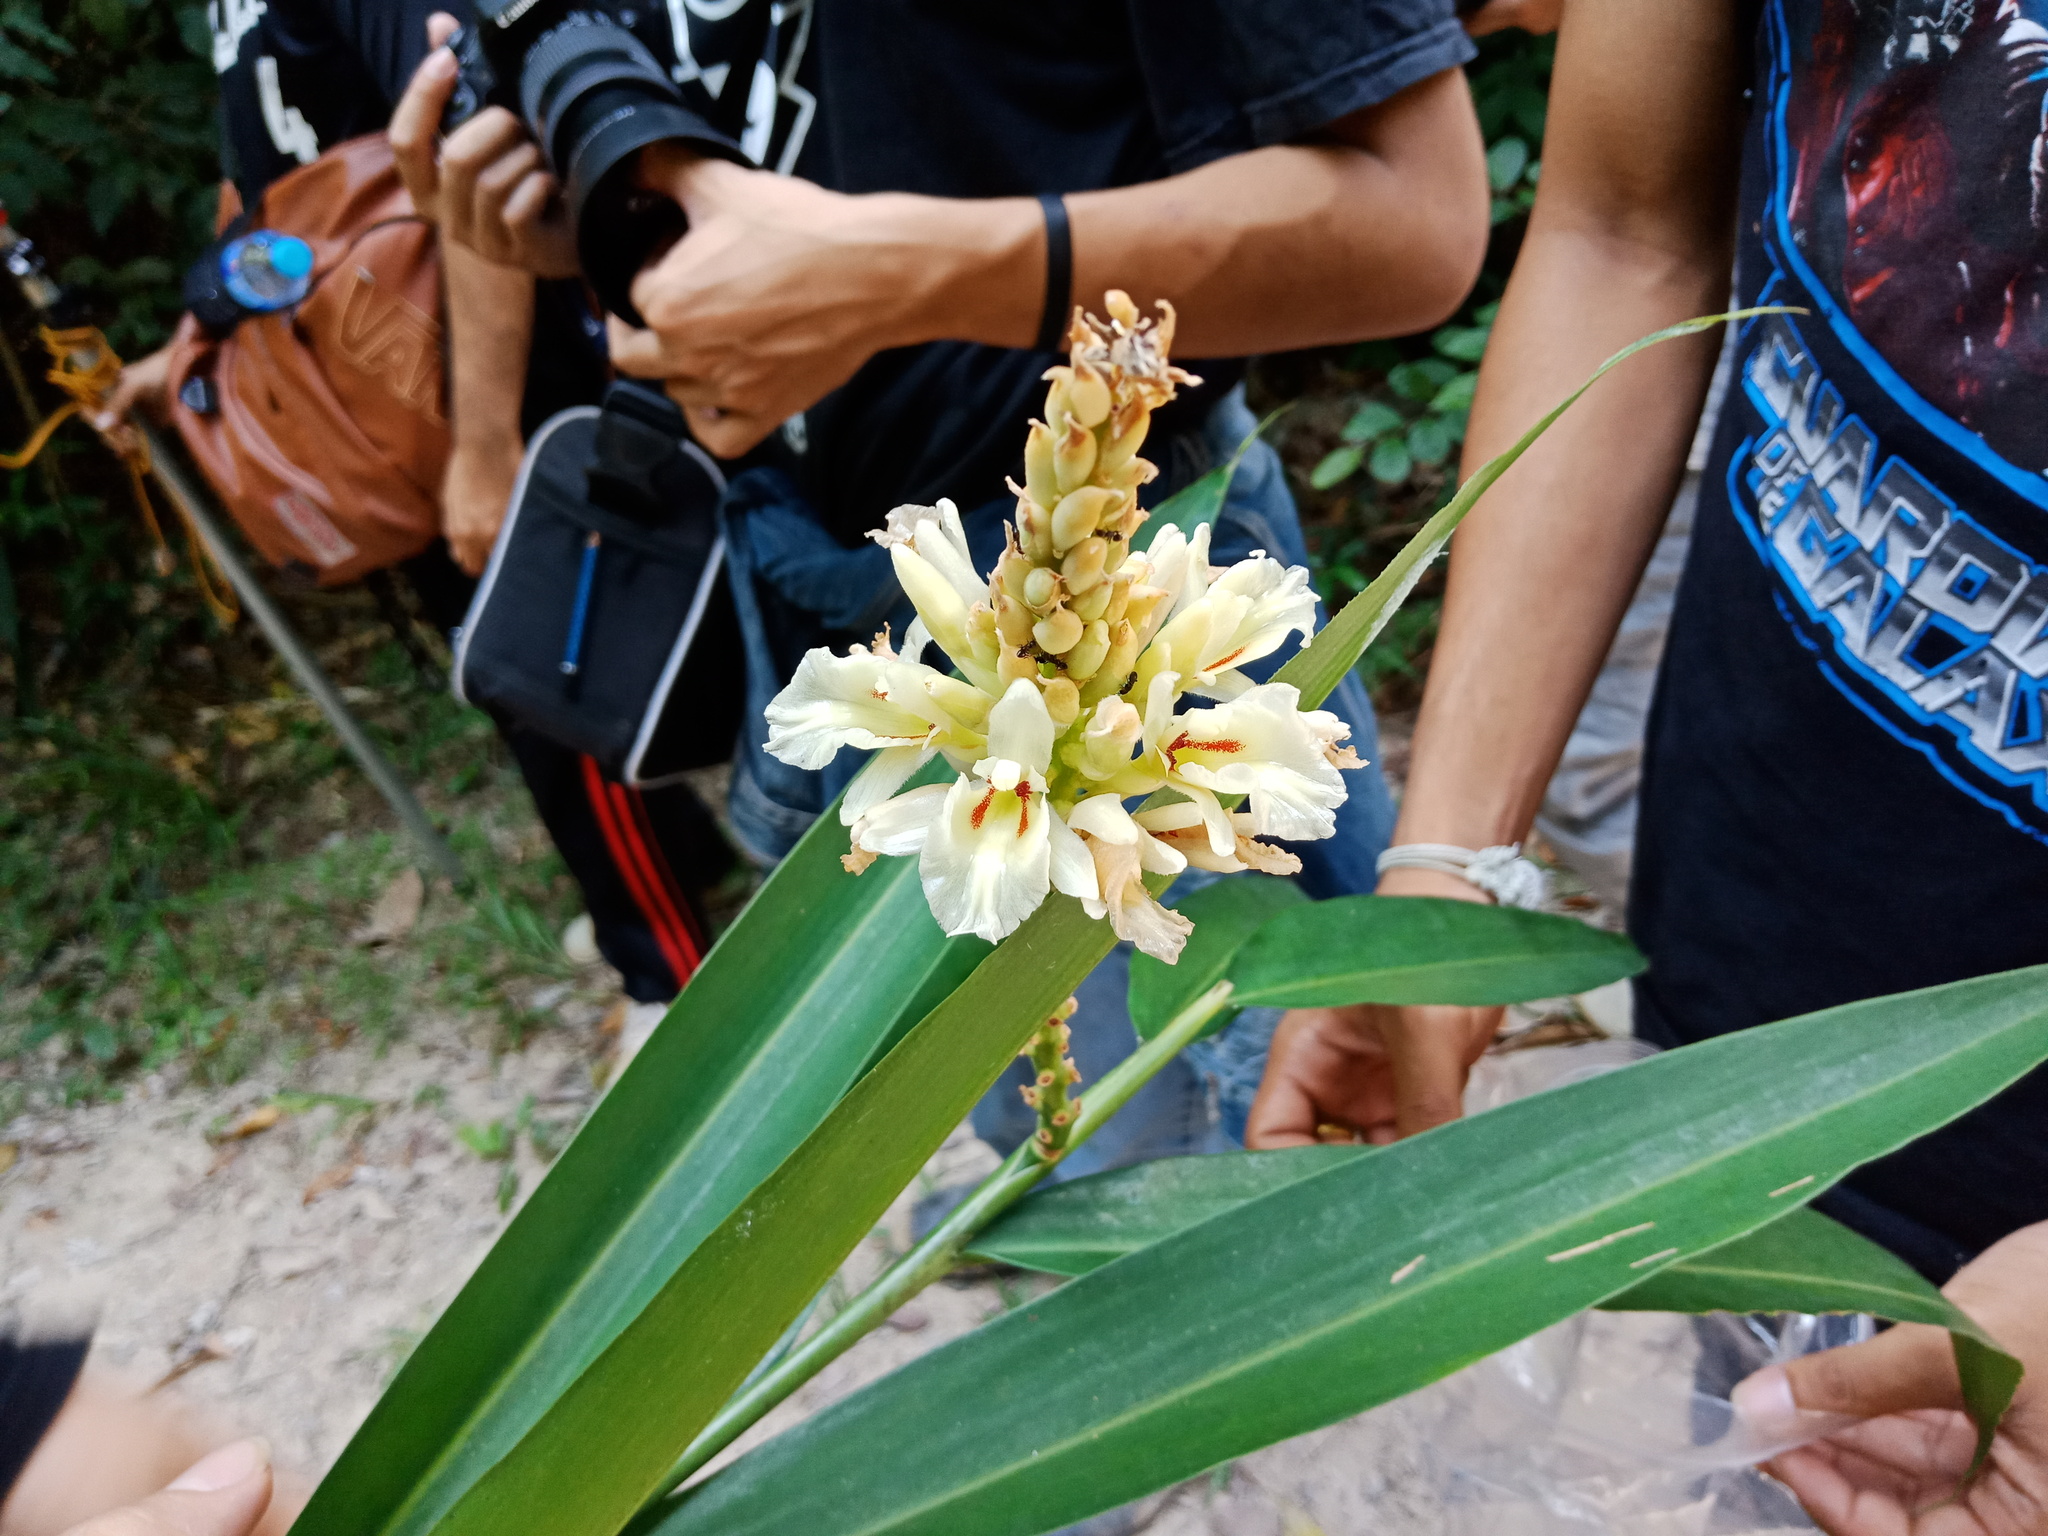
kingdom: Plantae
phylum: Tracheophyta
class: Liliopsida
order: Zingiberales
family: Zingiberaceae
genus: Alpinia
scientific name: Alpinia oxymitra
